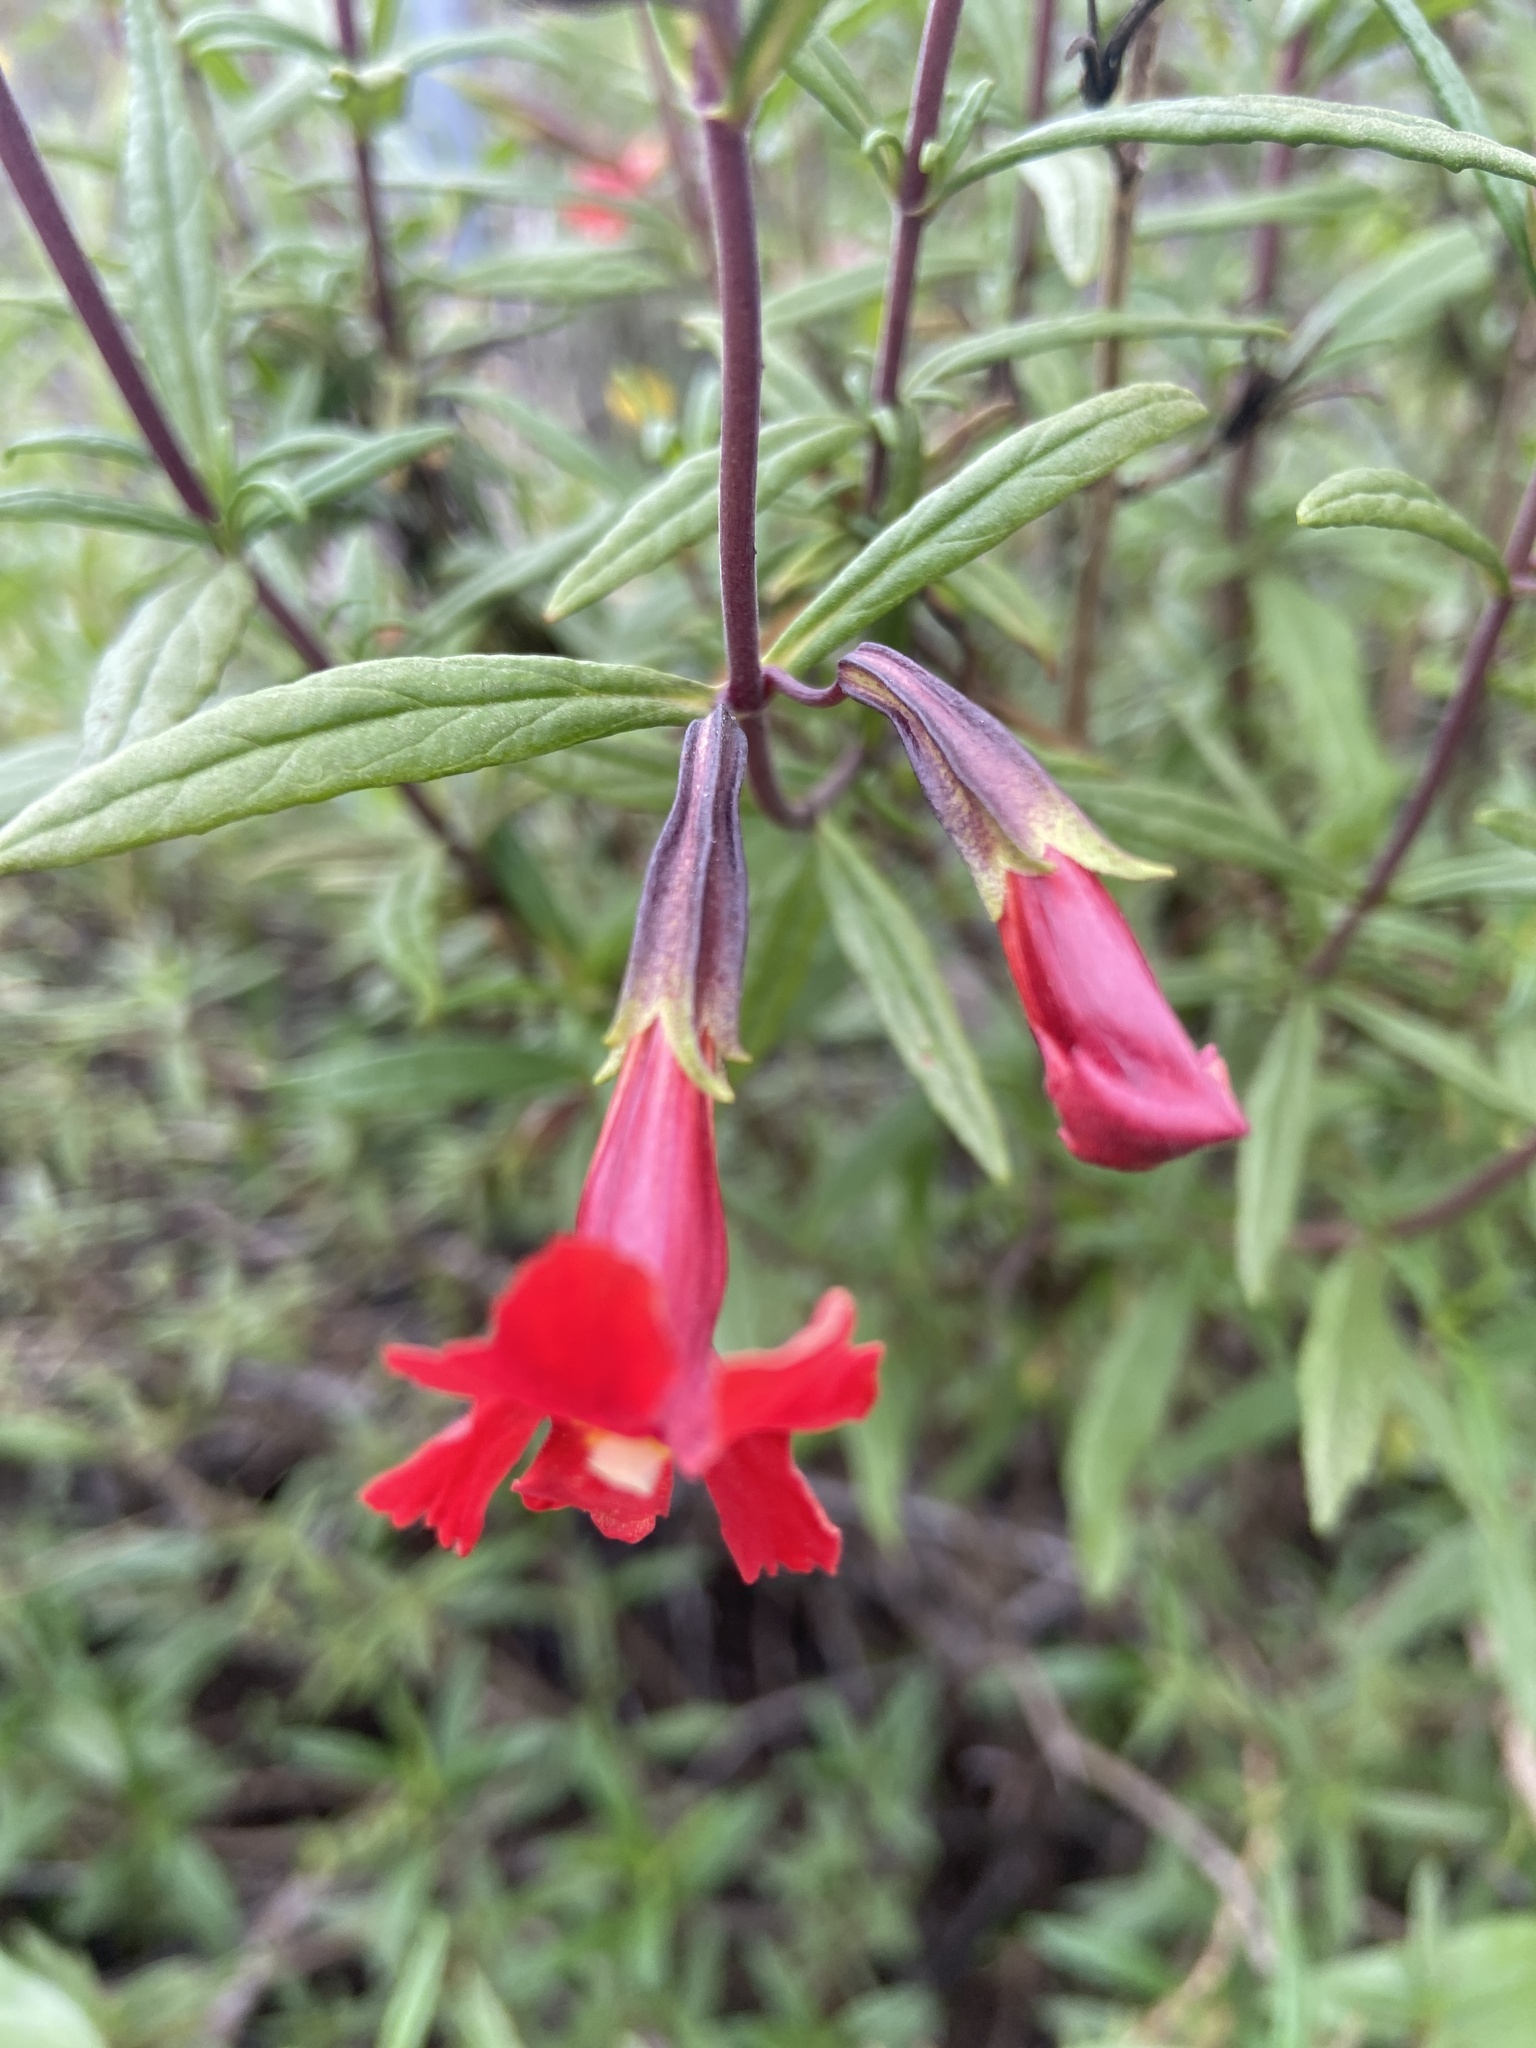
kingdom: Plantae
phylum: Tracheophyta
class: Magnoliopsida
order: Lamiales
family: Phrymaceae
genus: Diplacus
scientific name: Diplacus puniceus
